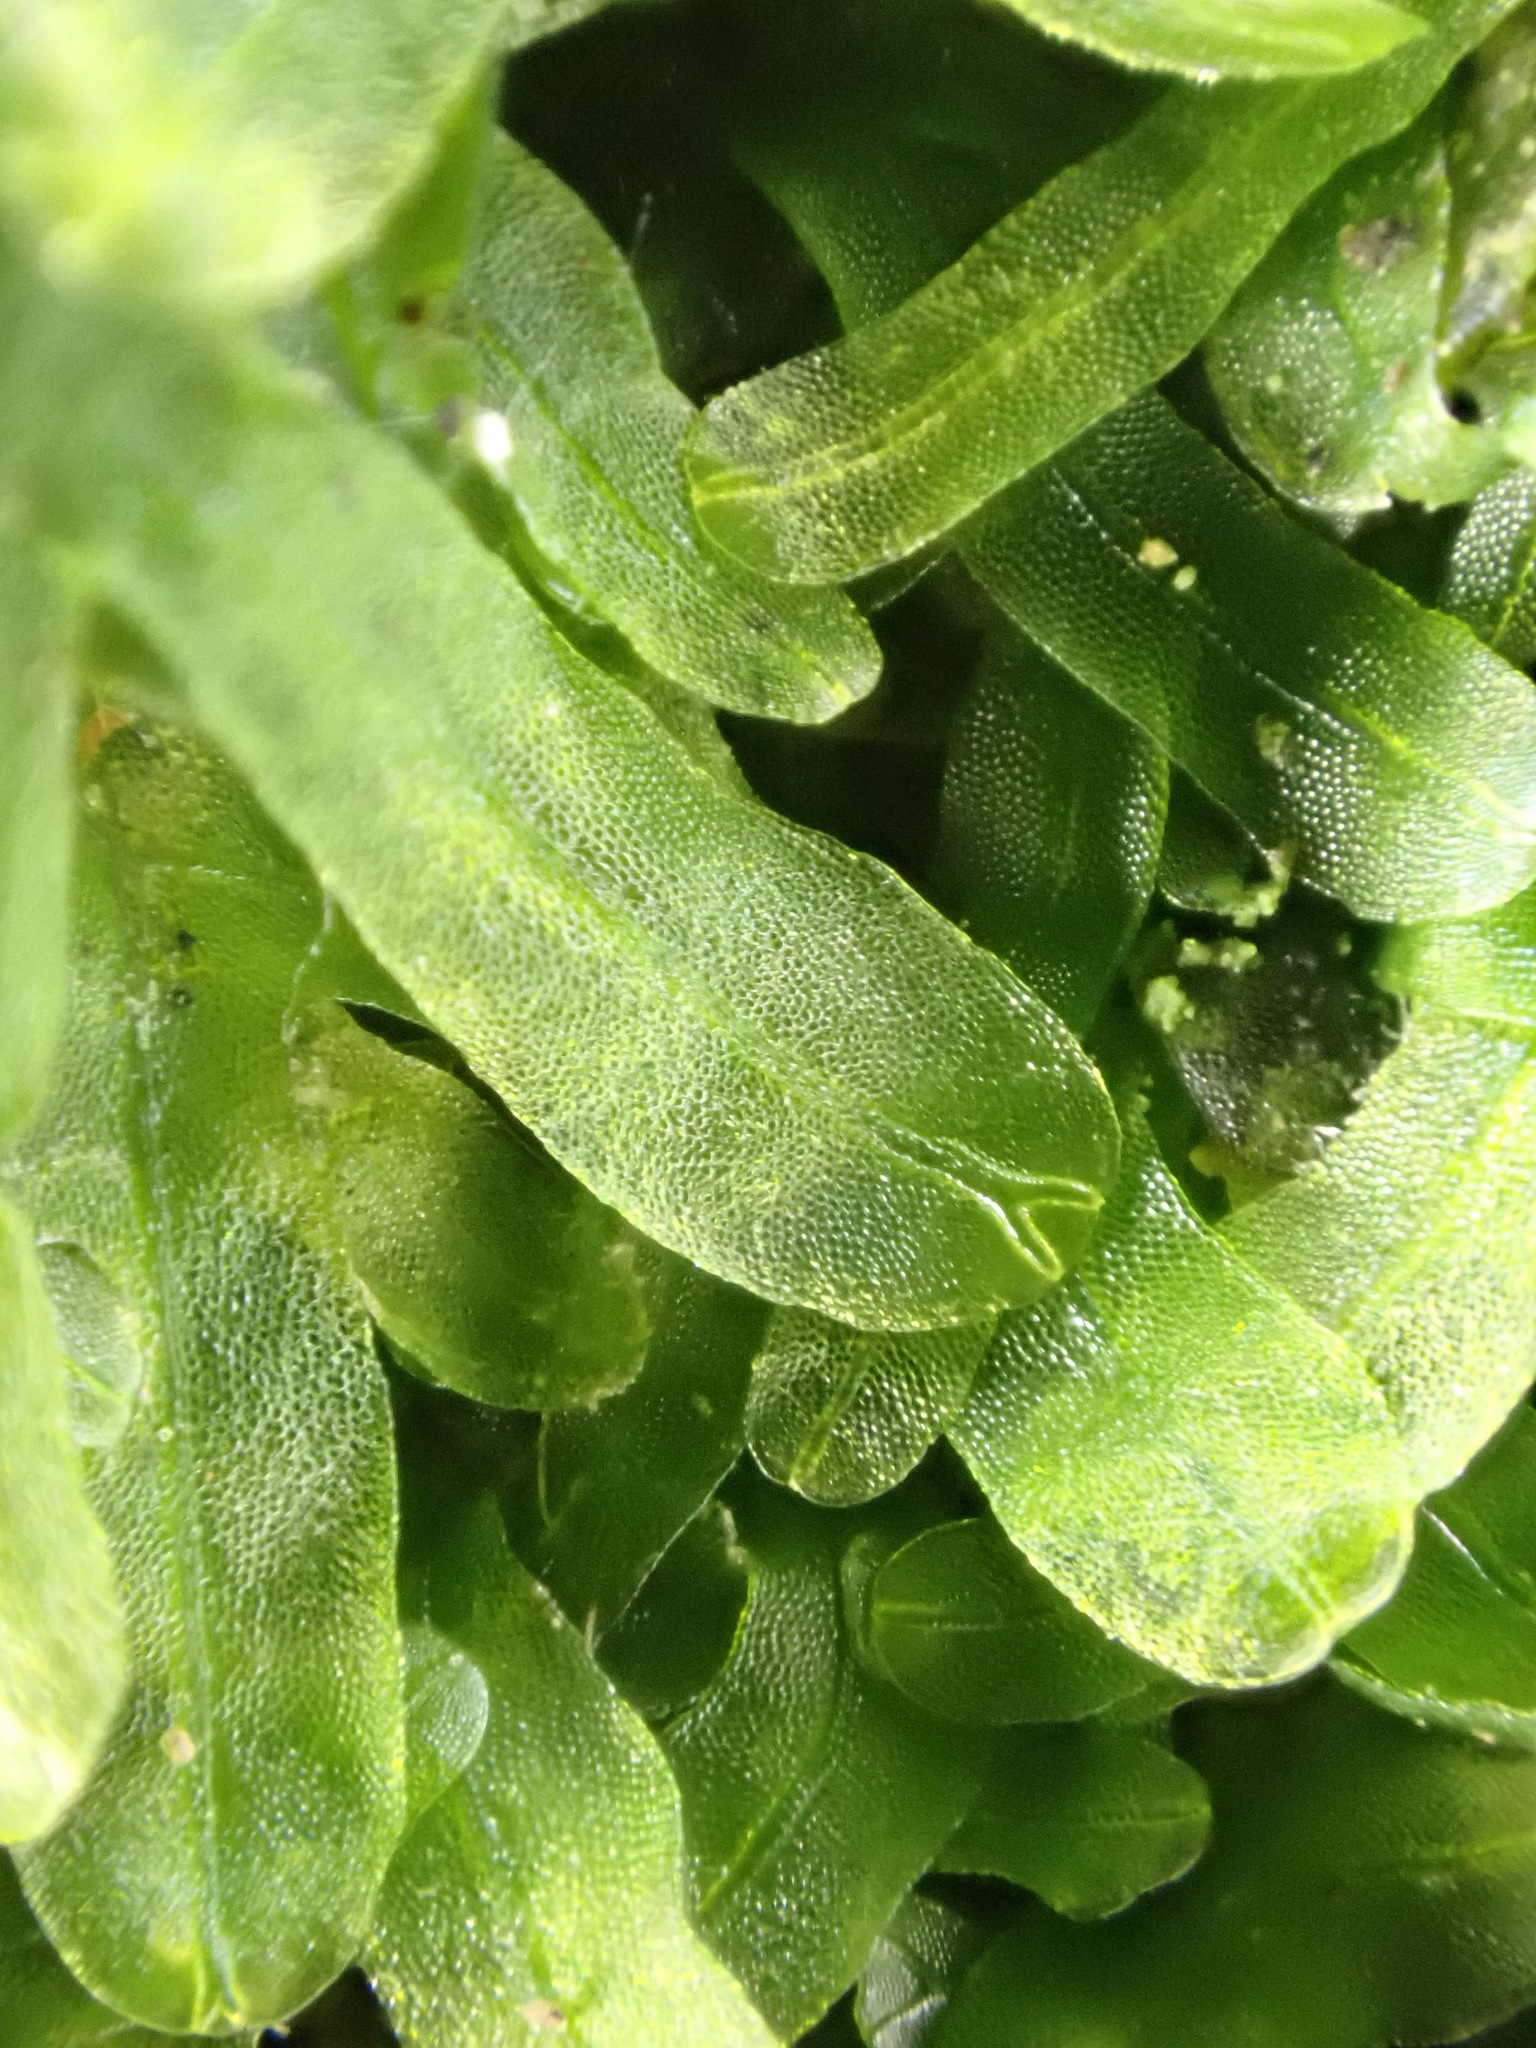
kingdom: Plantae
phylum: Marchantiophyta
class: Jungermanniopsida
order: Metzgeriales
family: Metzgeriaceae
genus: Metzgeria
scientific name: Metzgeria furcata
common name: Forked veilwort
